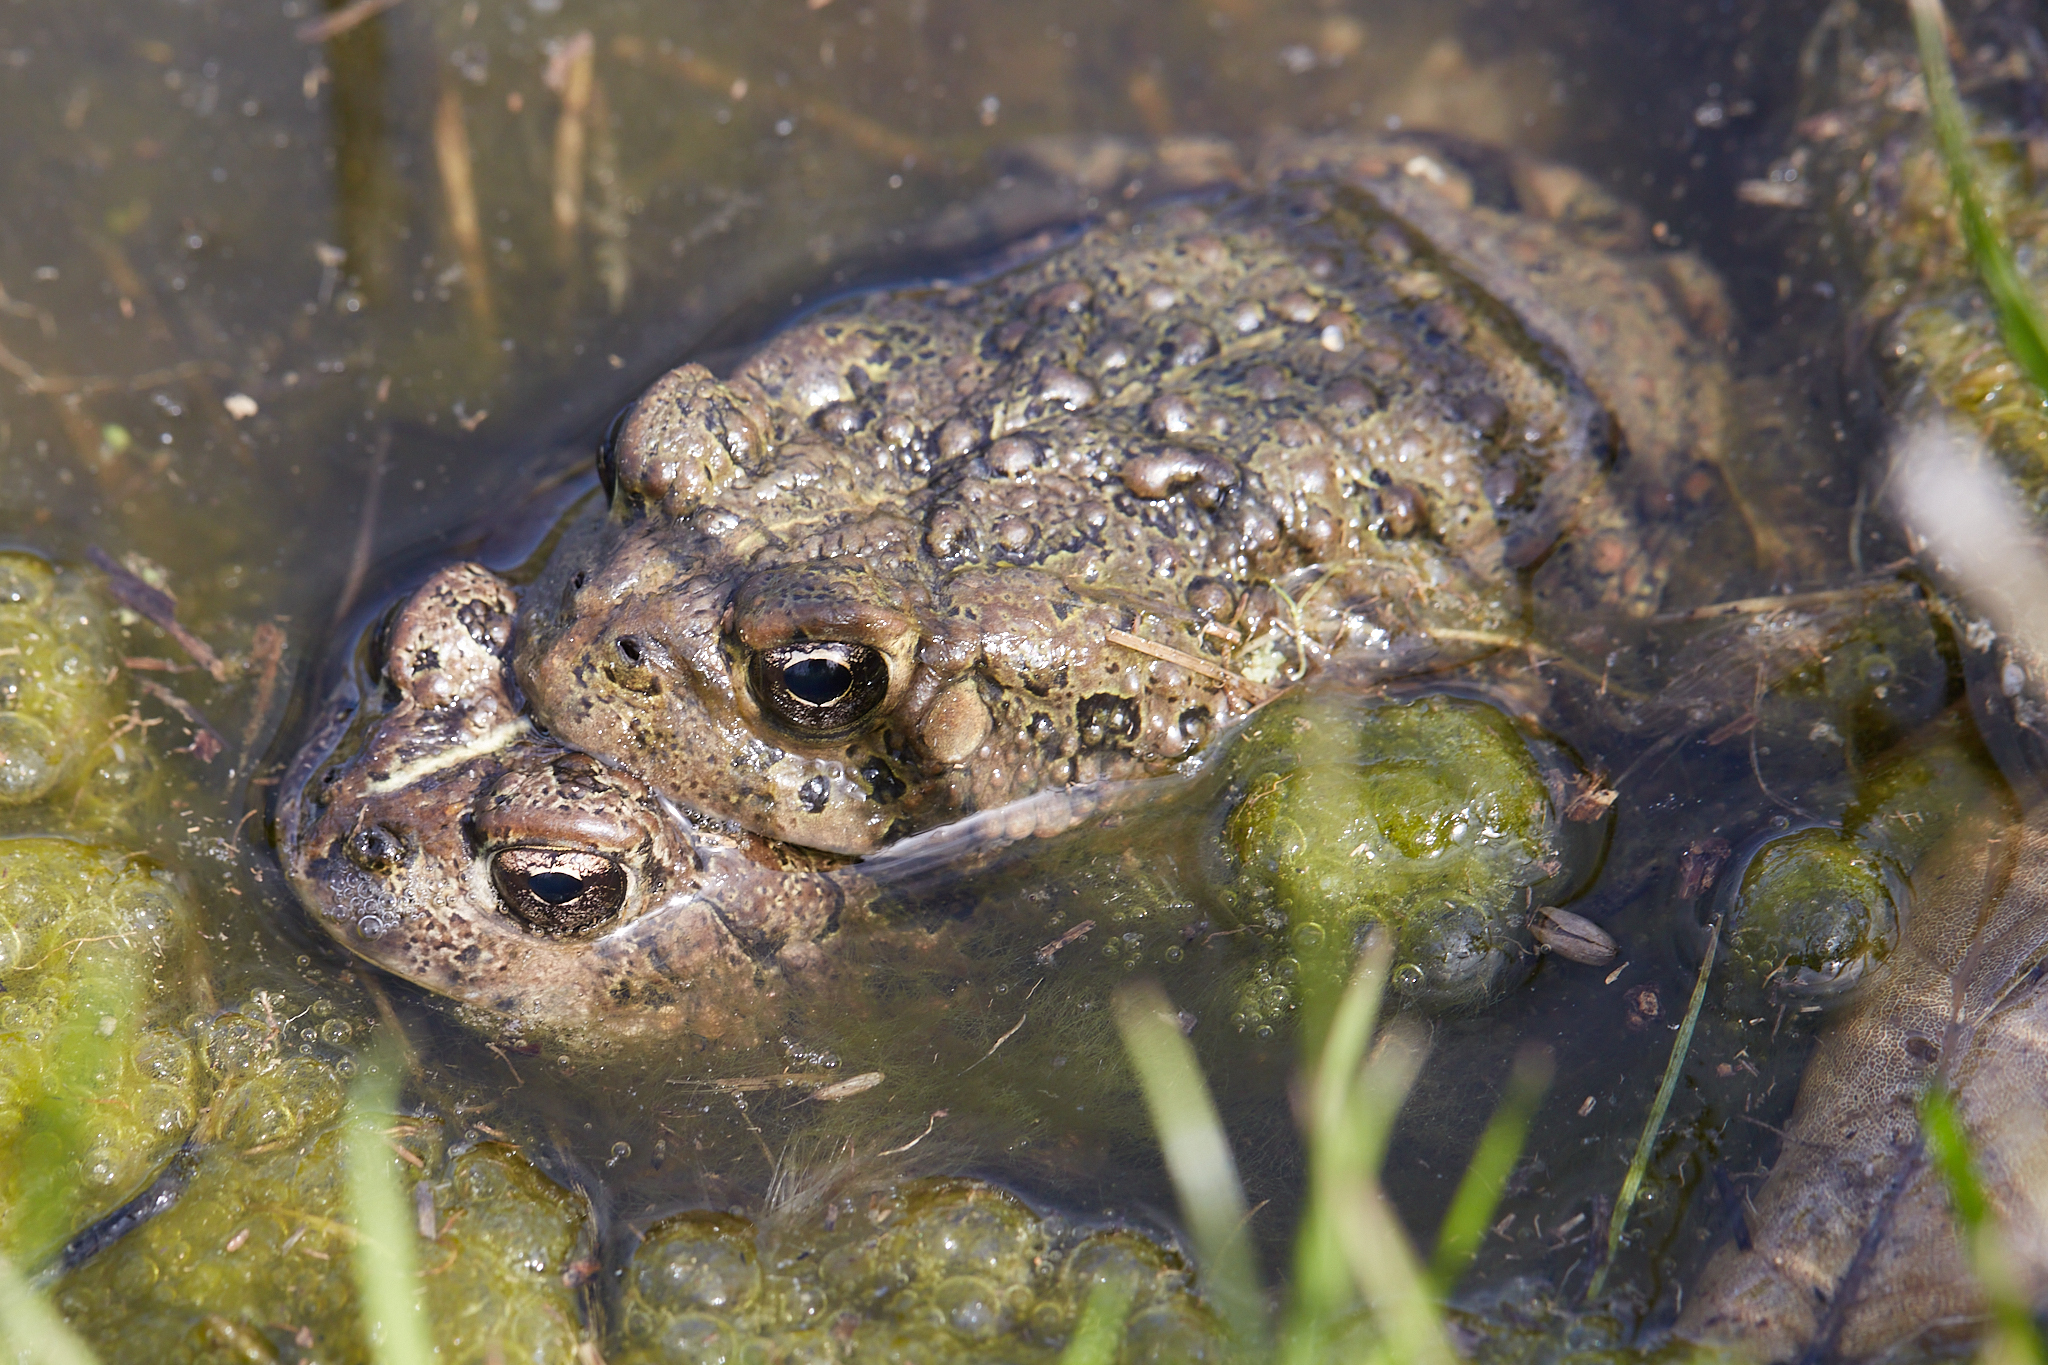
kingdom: Animalia
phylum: Chordata
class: Amphibia
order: Anura
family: Bufonidae
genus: Anaxyrus
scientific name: Anaxyrus boreas
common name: Western toad
